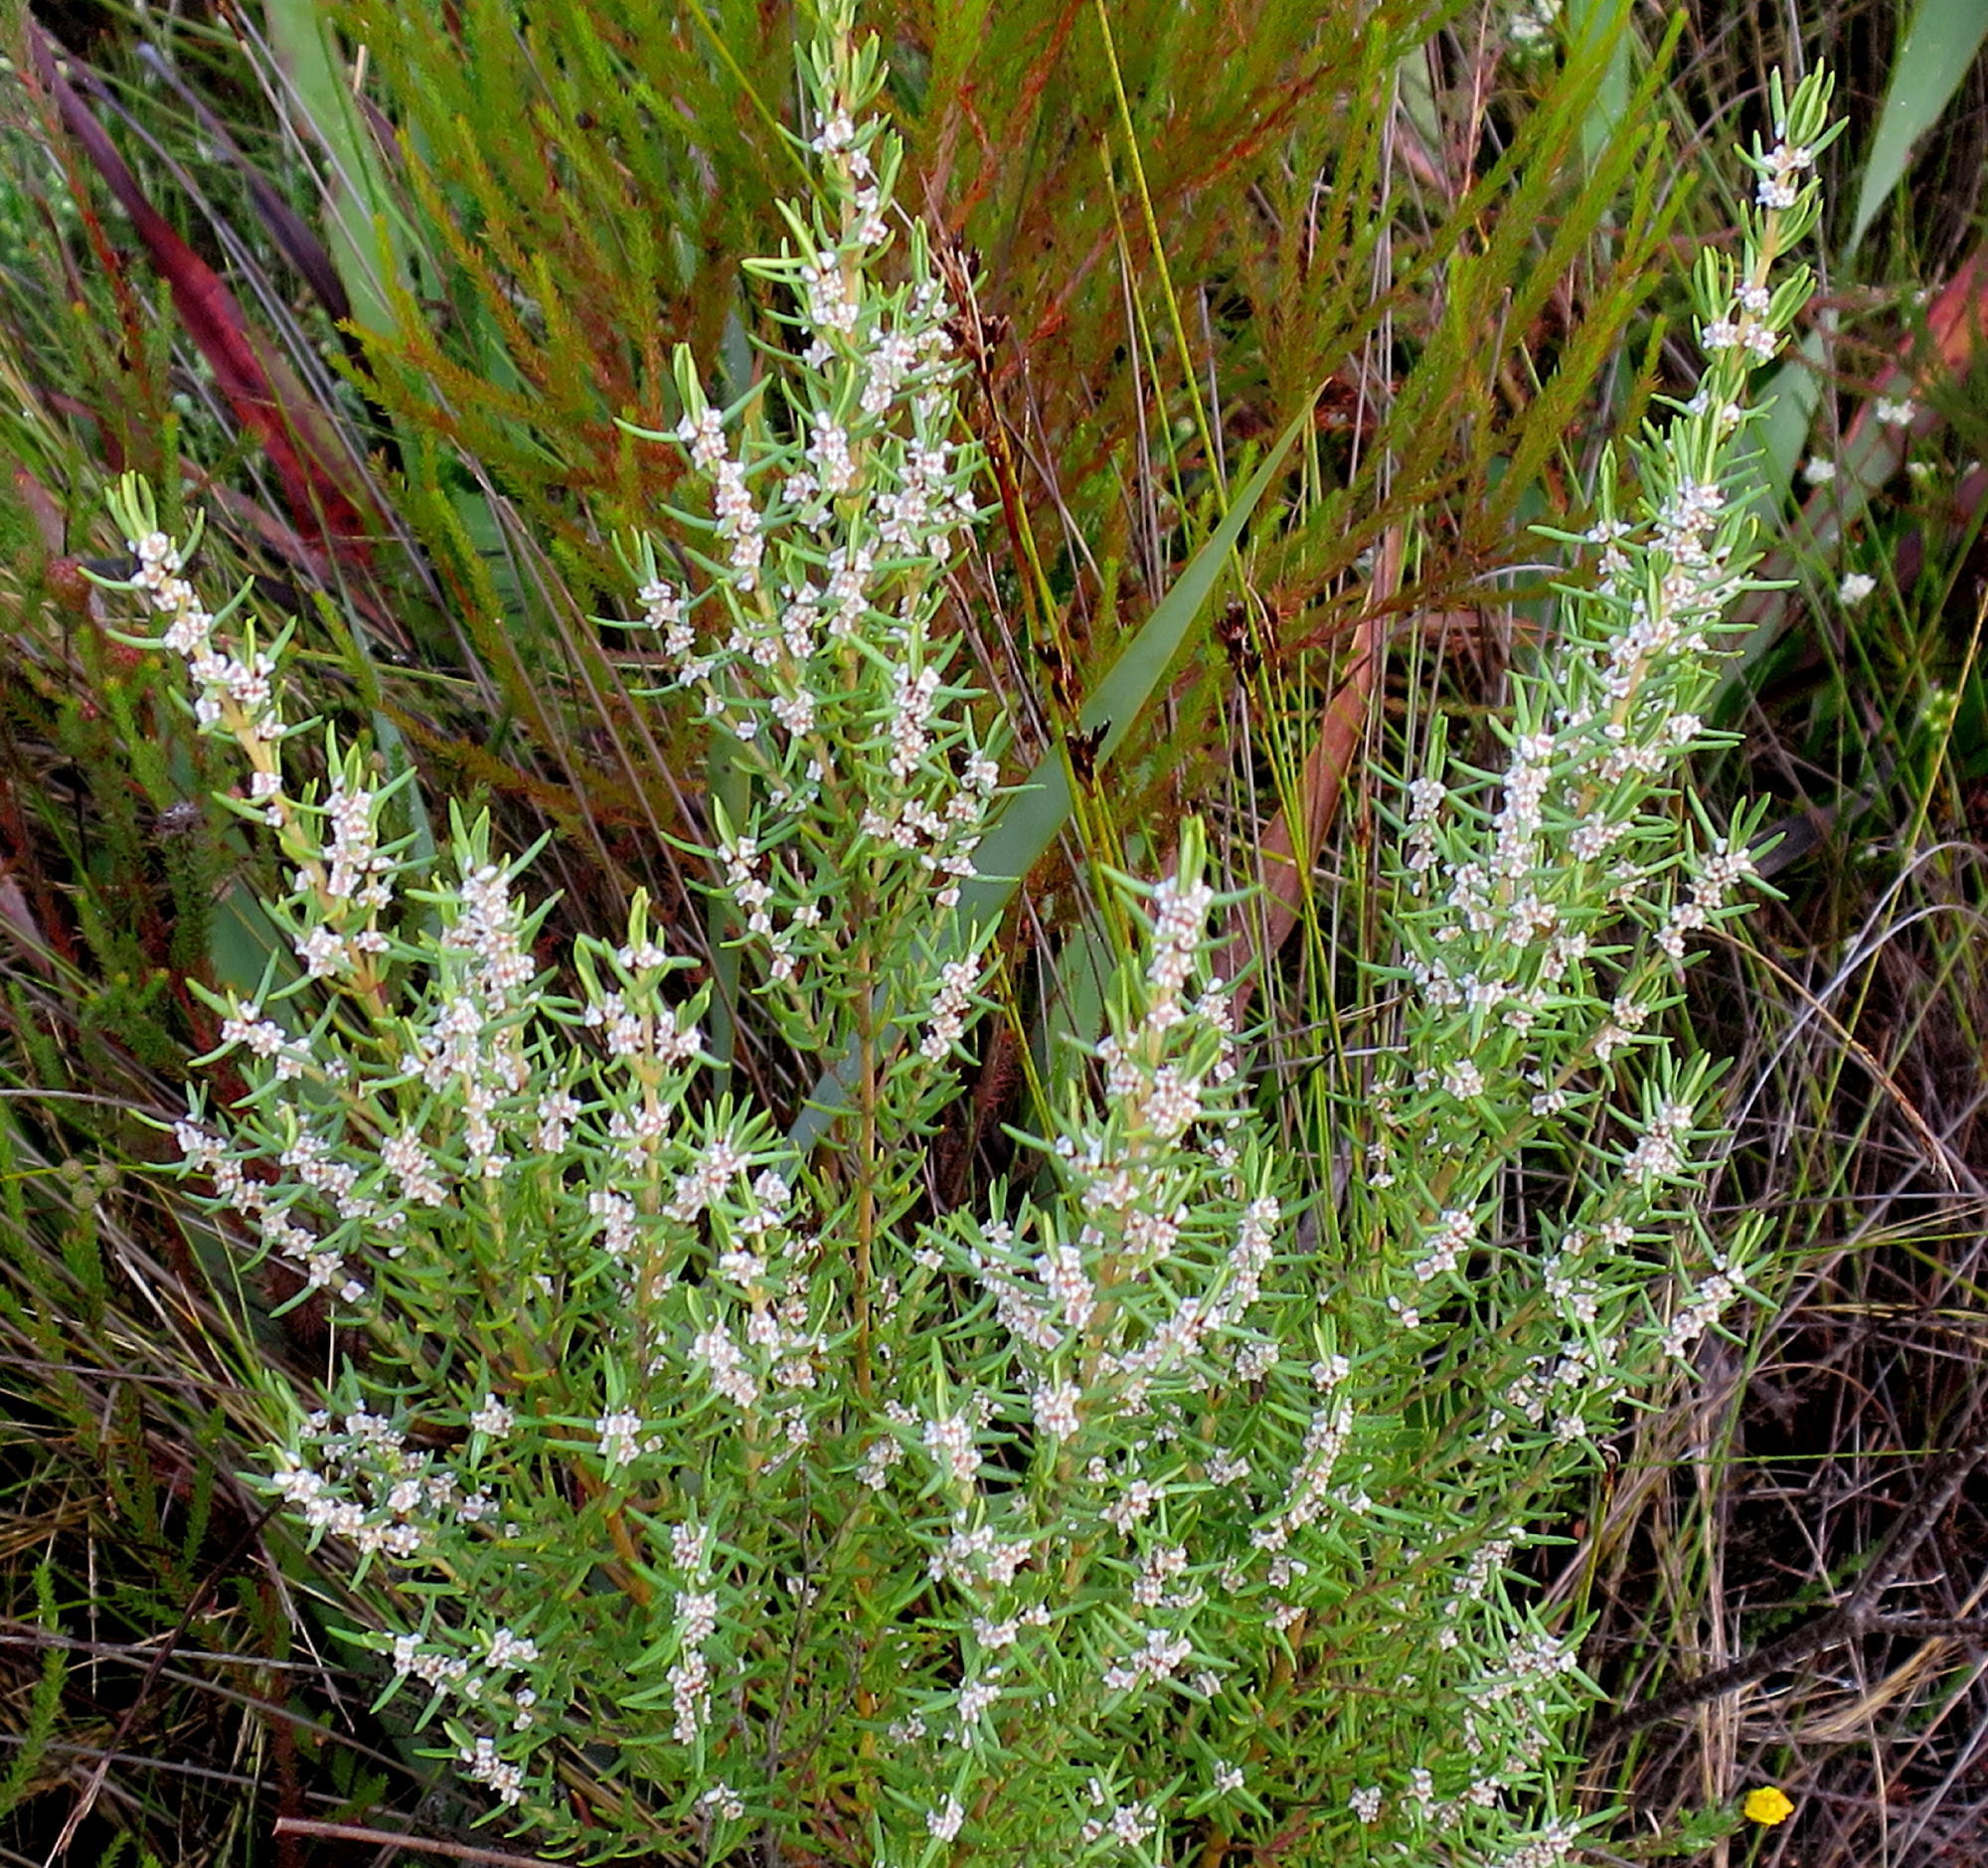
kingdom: Plantae
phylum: Tracheophyta
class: Magnoliopsida
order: Cornales
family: Grubbiaceae
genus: Grubbia
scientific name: Grubbia rosmarinifolia
